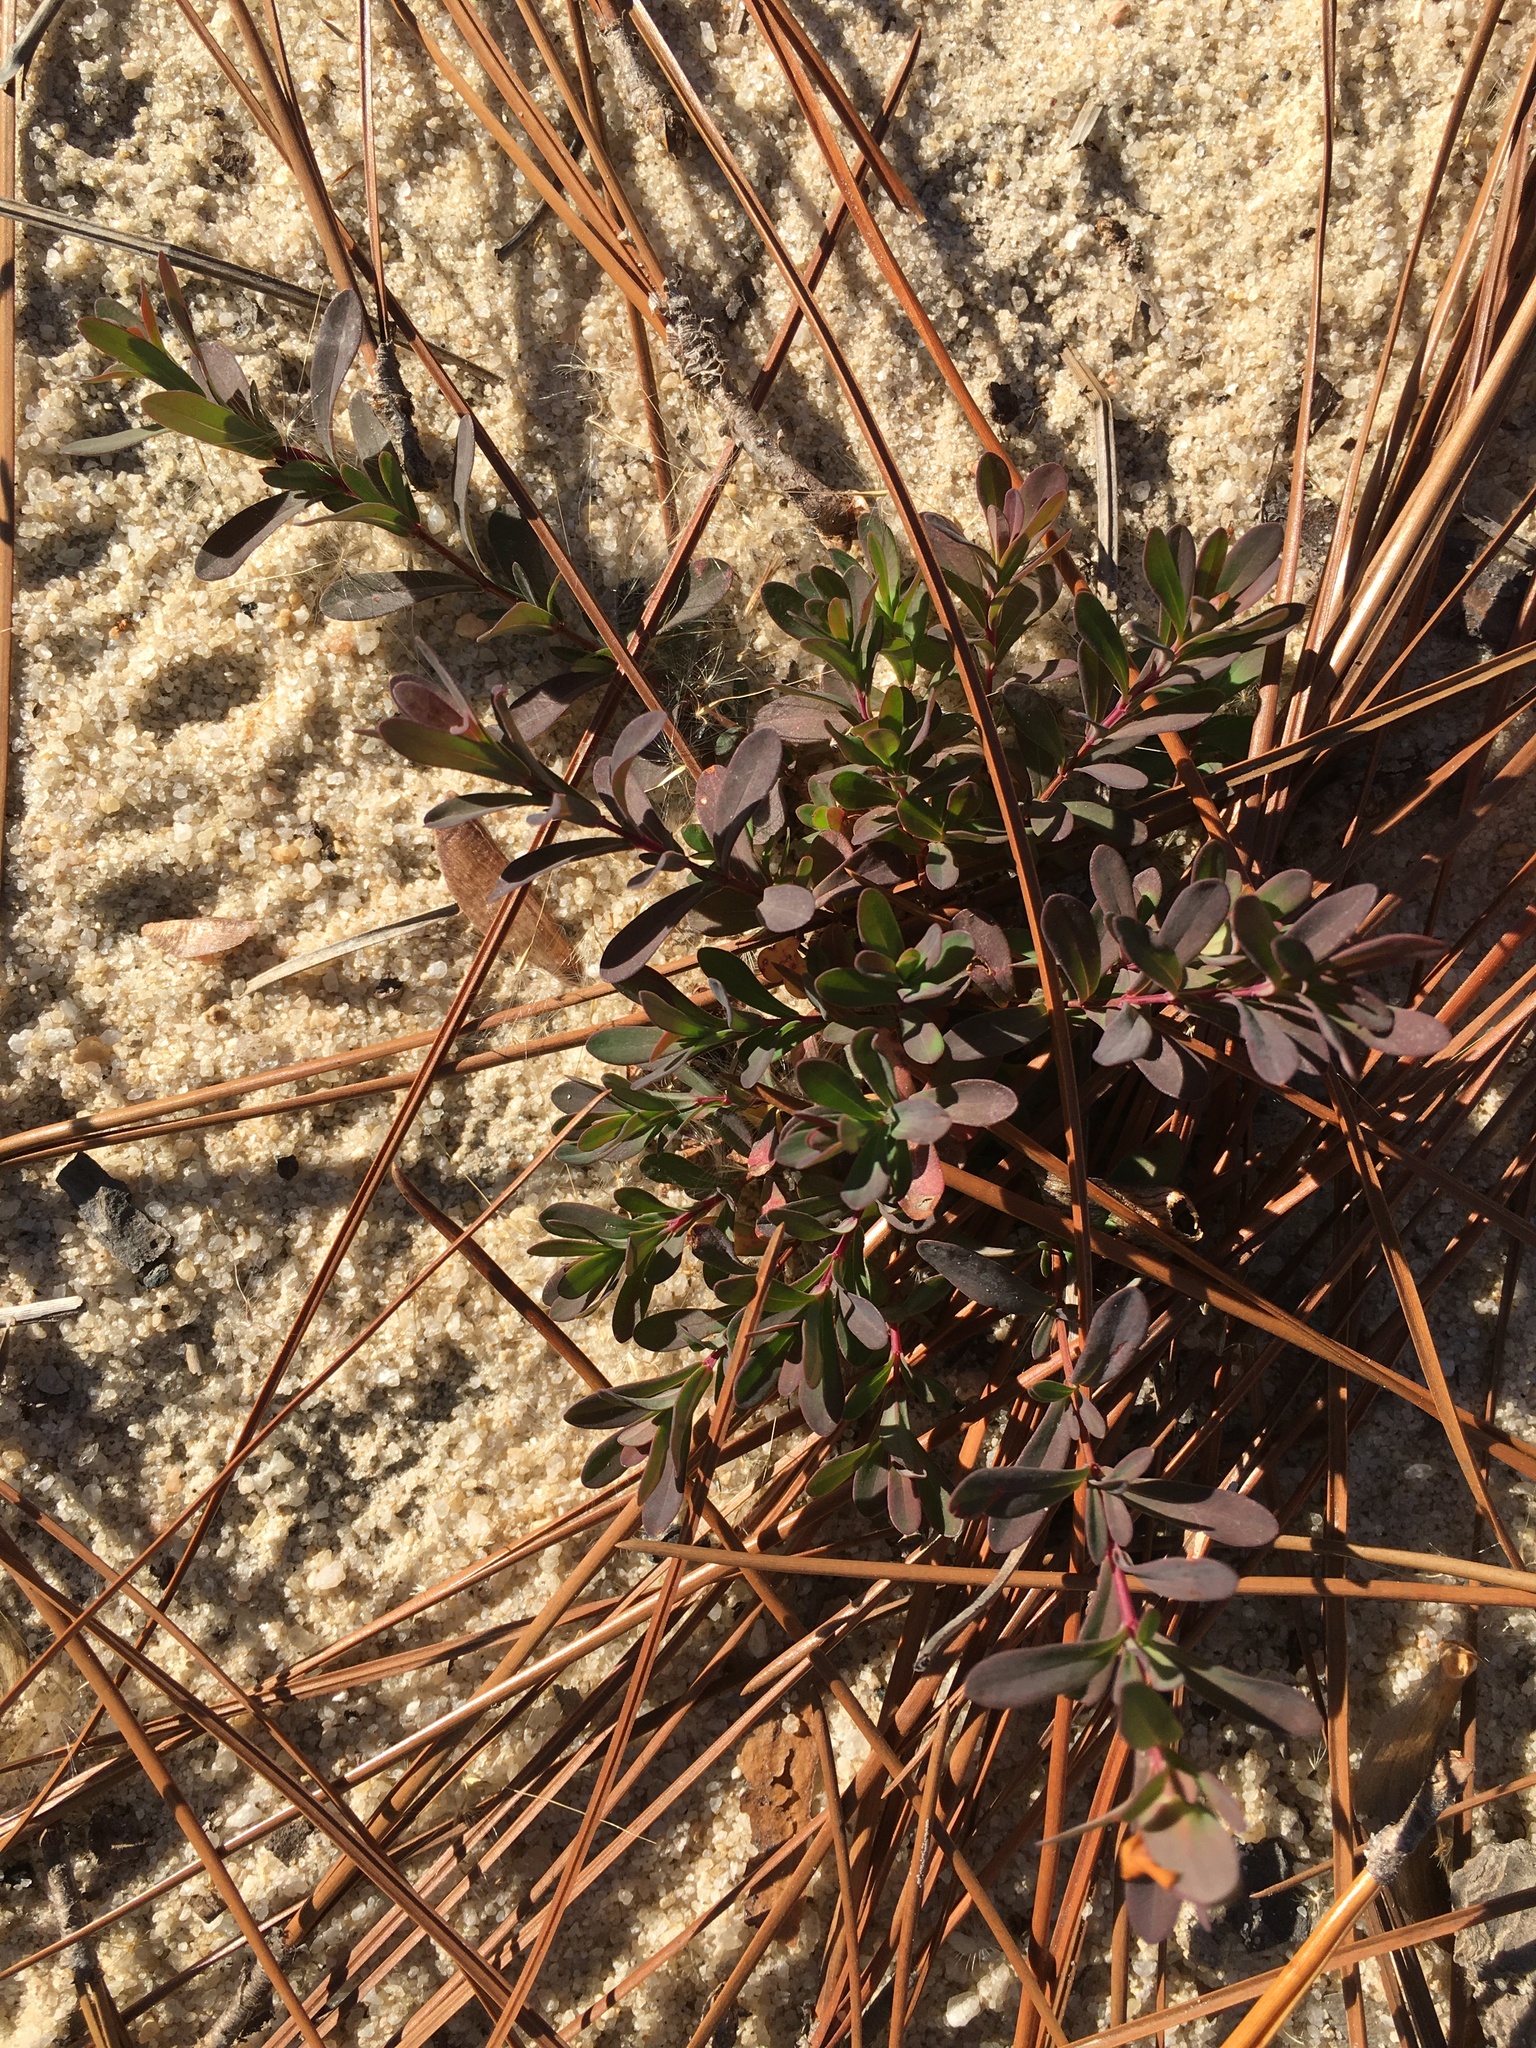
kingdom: Plantae
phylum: Tracheophyta
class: Magnoliopsida
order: Malpighiales
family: Hypericaceae
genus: Hypericum
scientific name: Hypericum hypericoides
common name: St. andrew's cross
